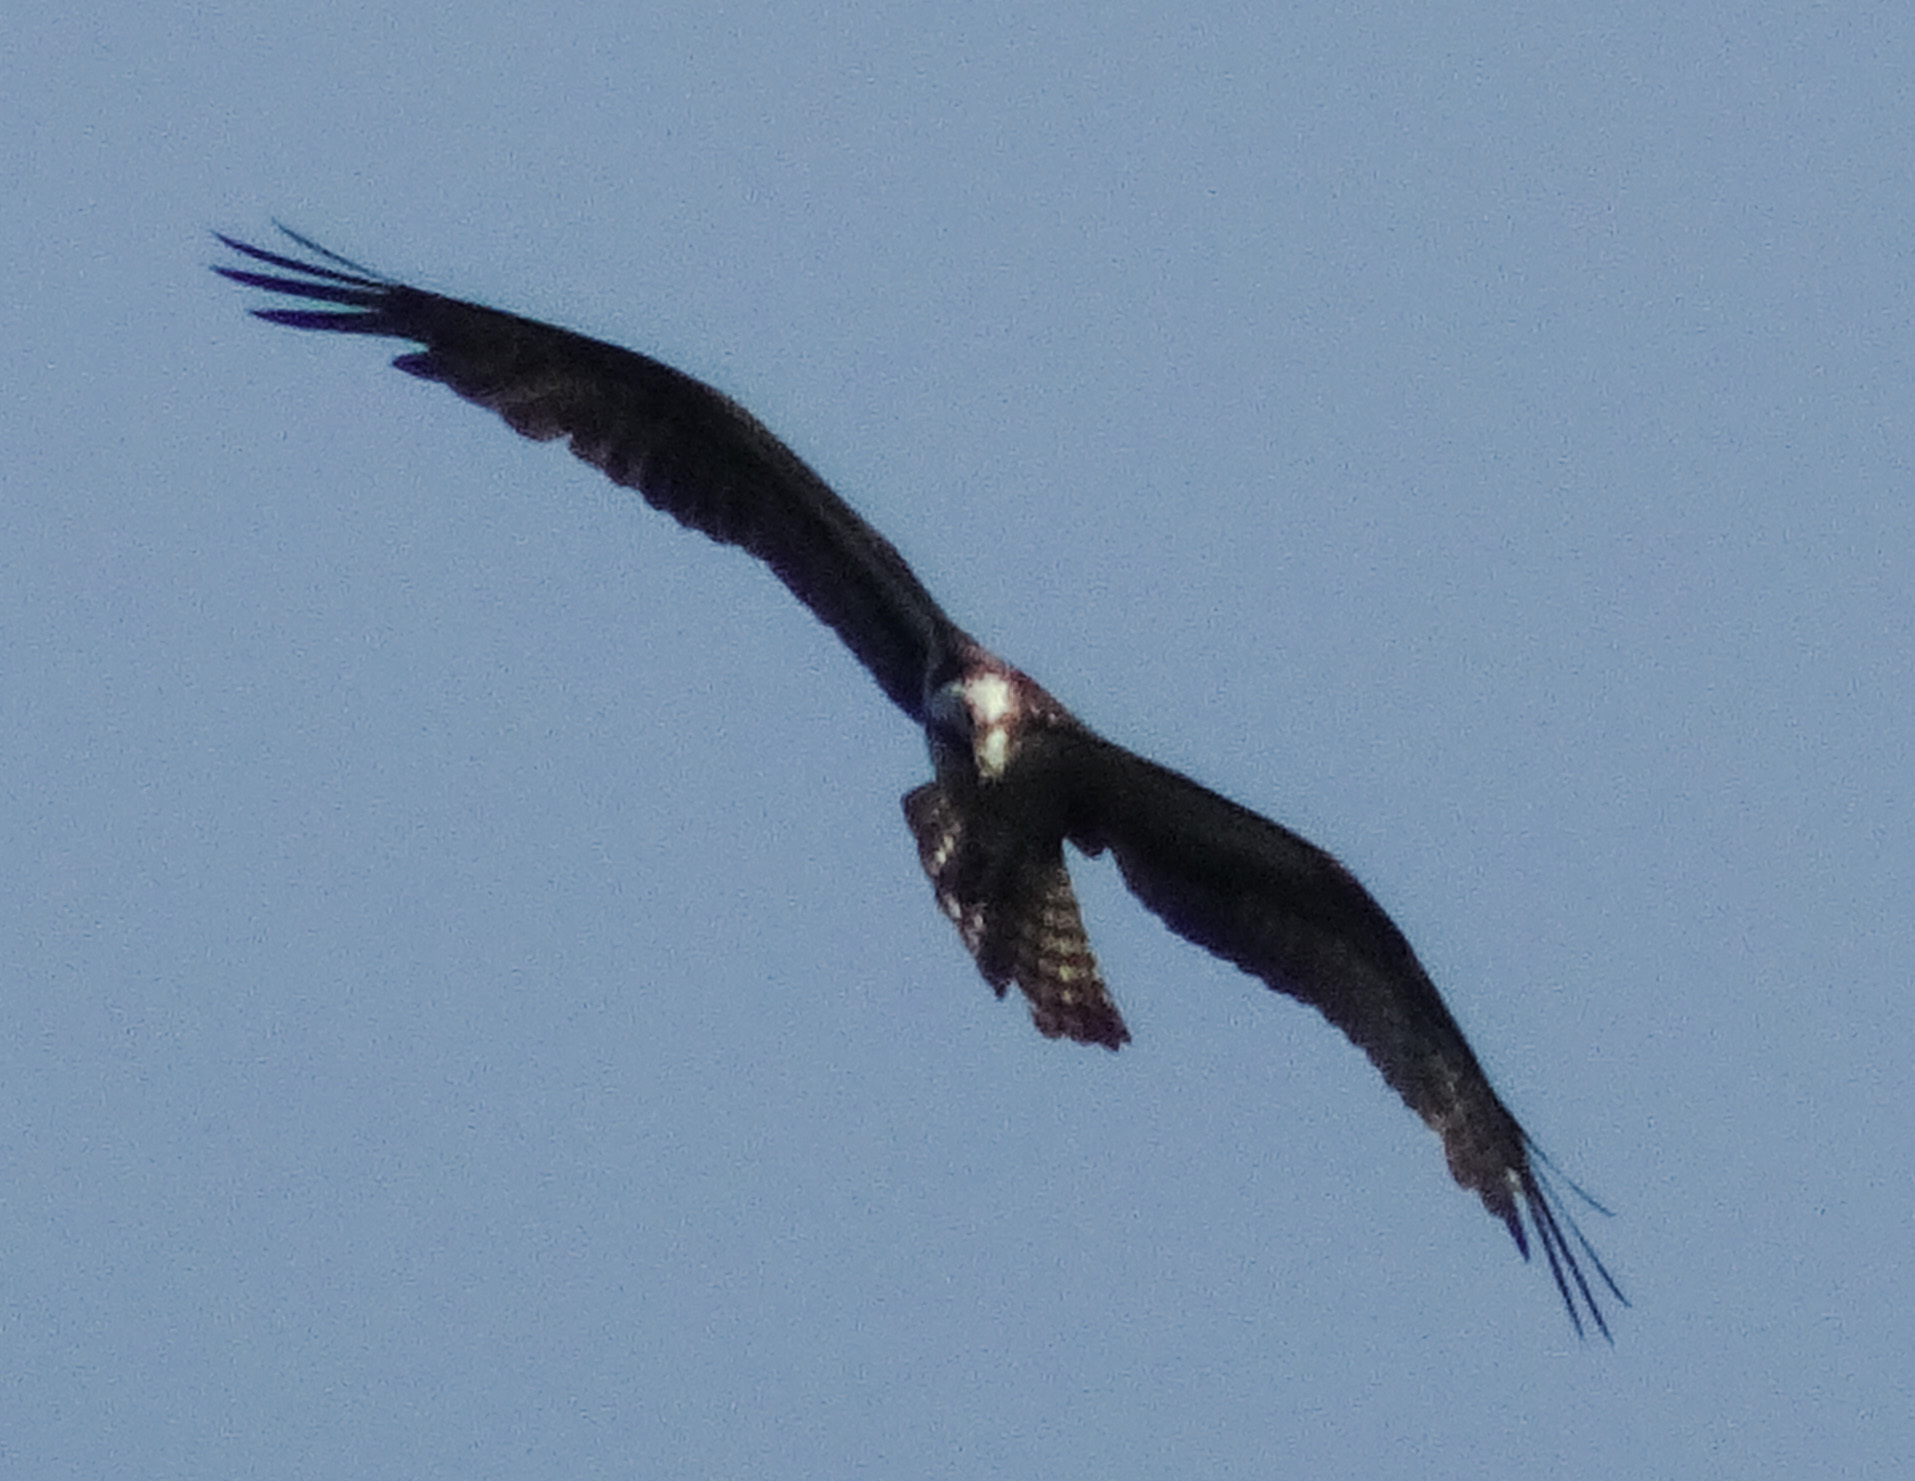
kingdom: Animalia
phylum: Chordata
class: Aves
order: Accipitriformes
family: Pandionidae
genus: Pandion
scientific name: Pandion haliaetus
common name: Osprey
